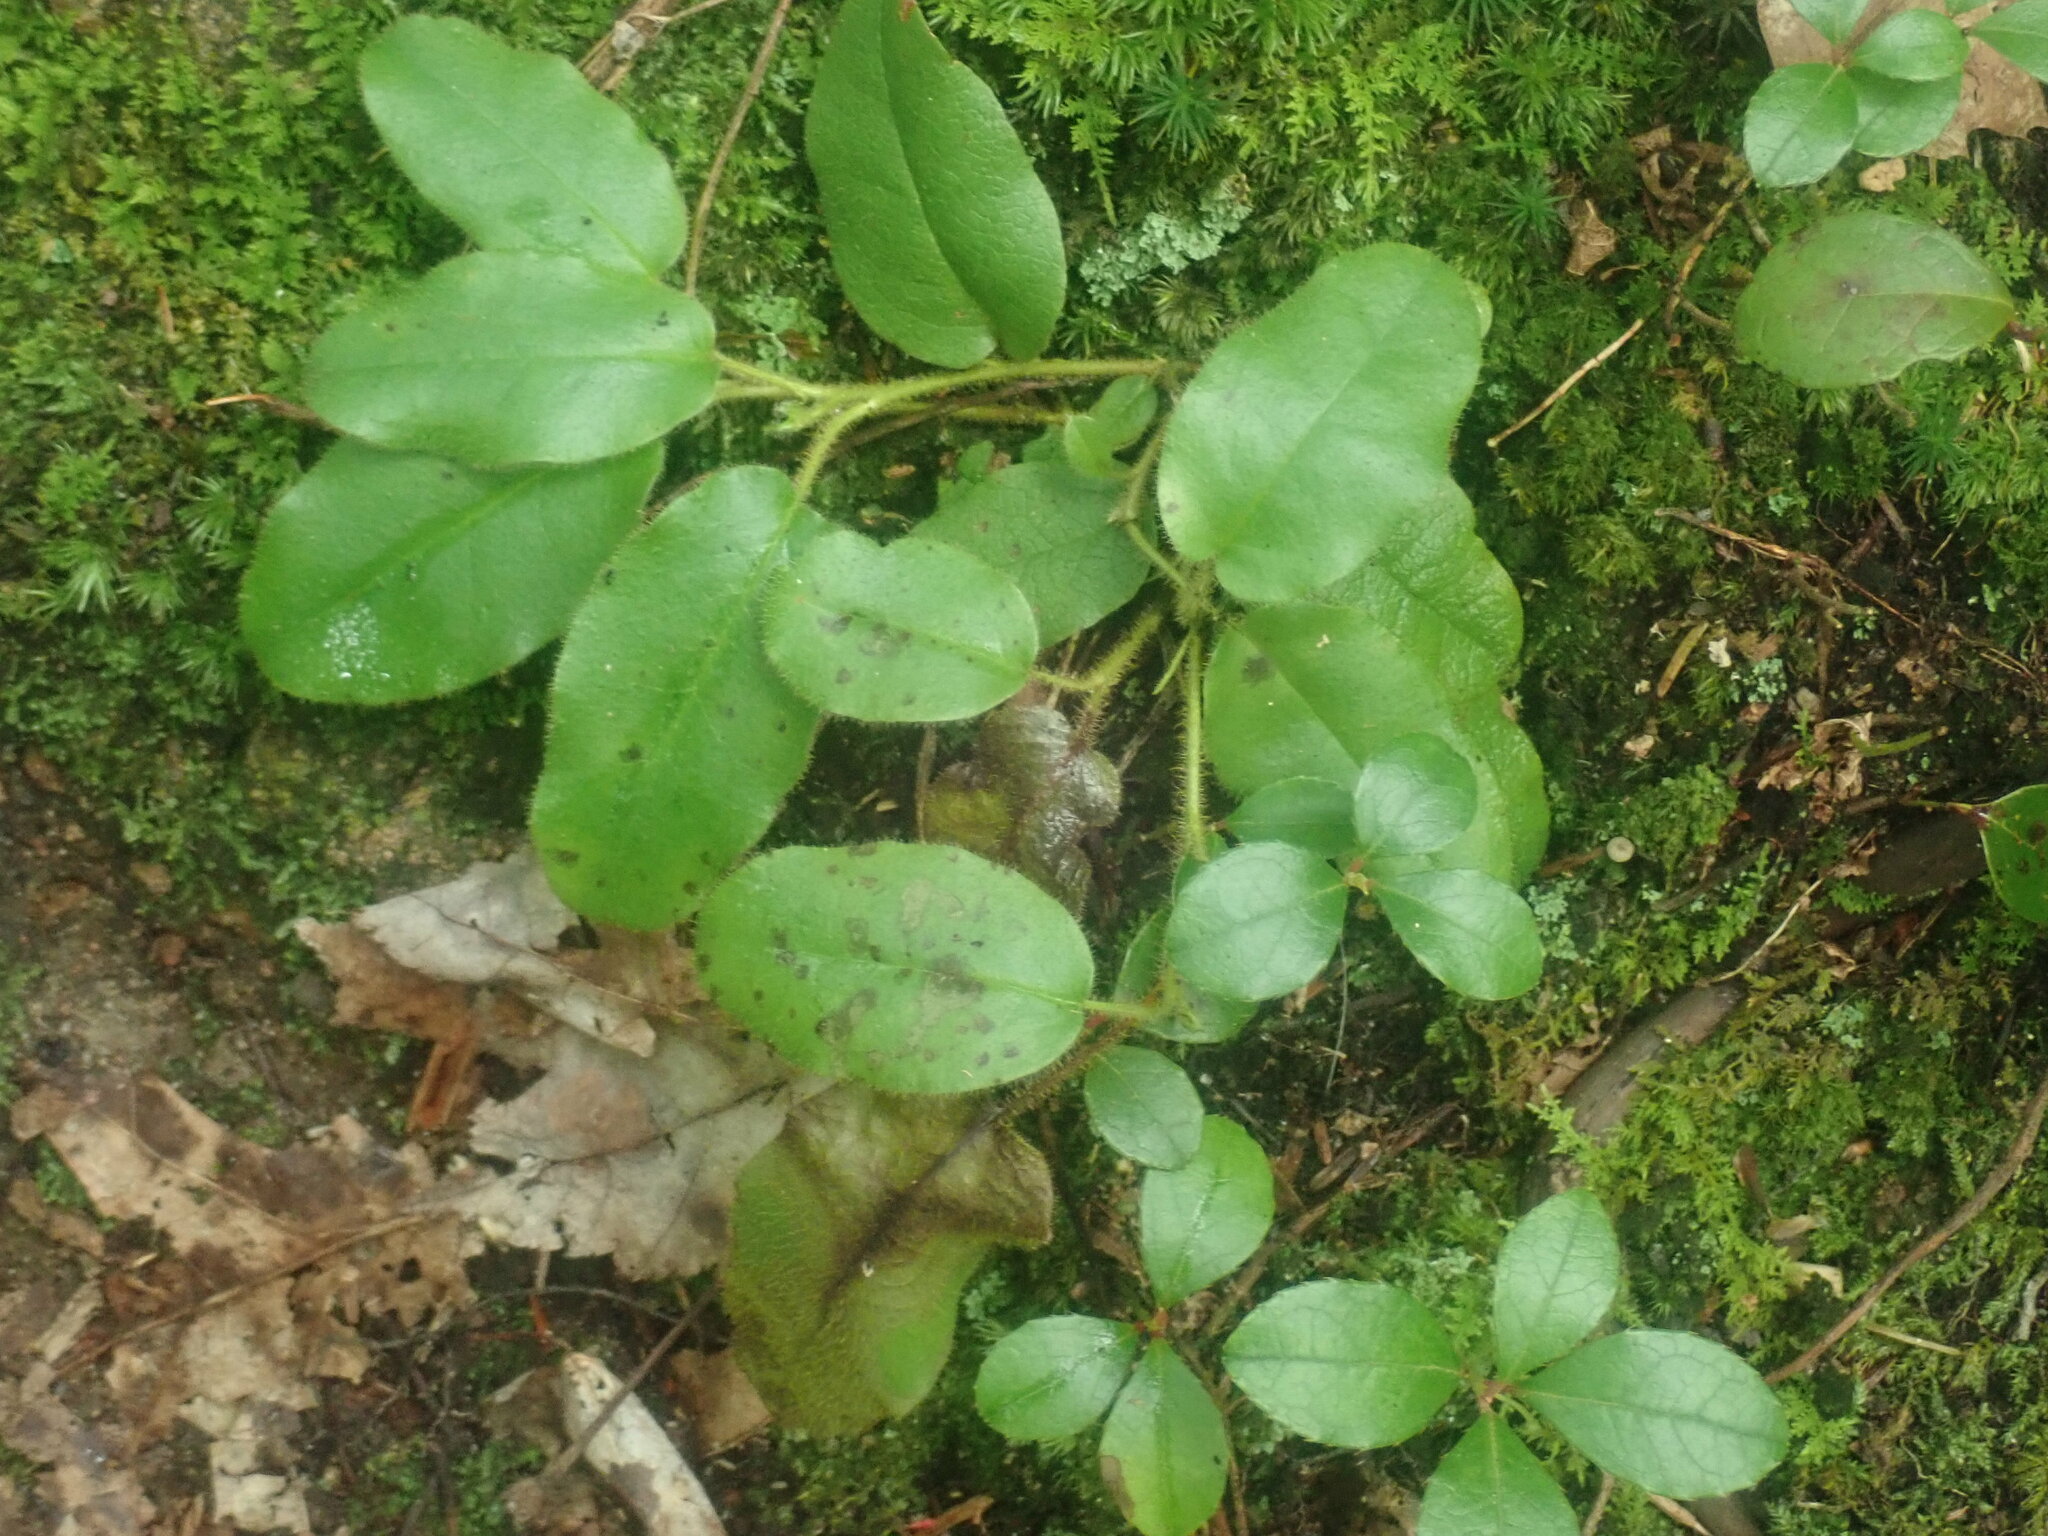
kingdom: Plantae
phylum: Tracheophyta
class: Magnoliopsida
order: Ericales
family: Ericaceae
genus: Epigaea
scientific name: Epigaea repens
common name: Gravelroot
